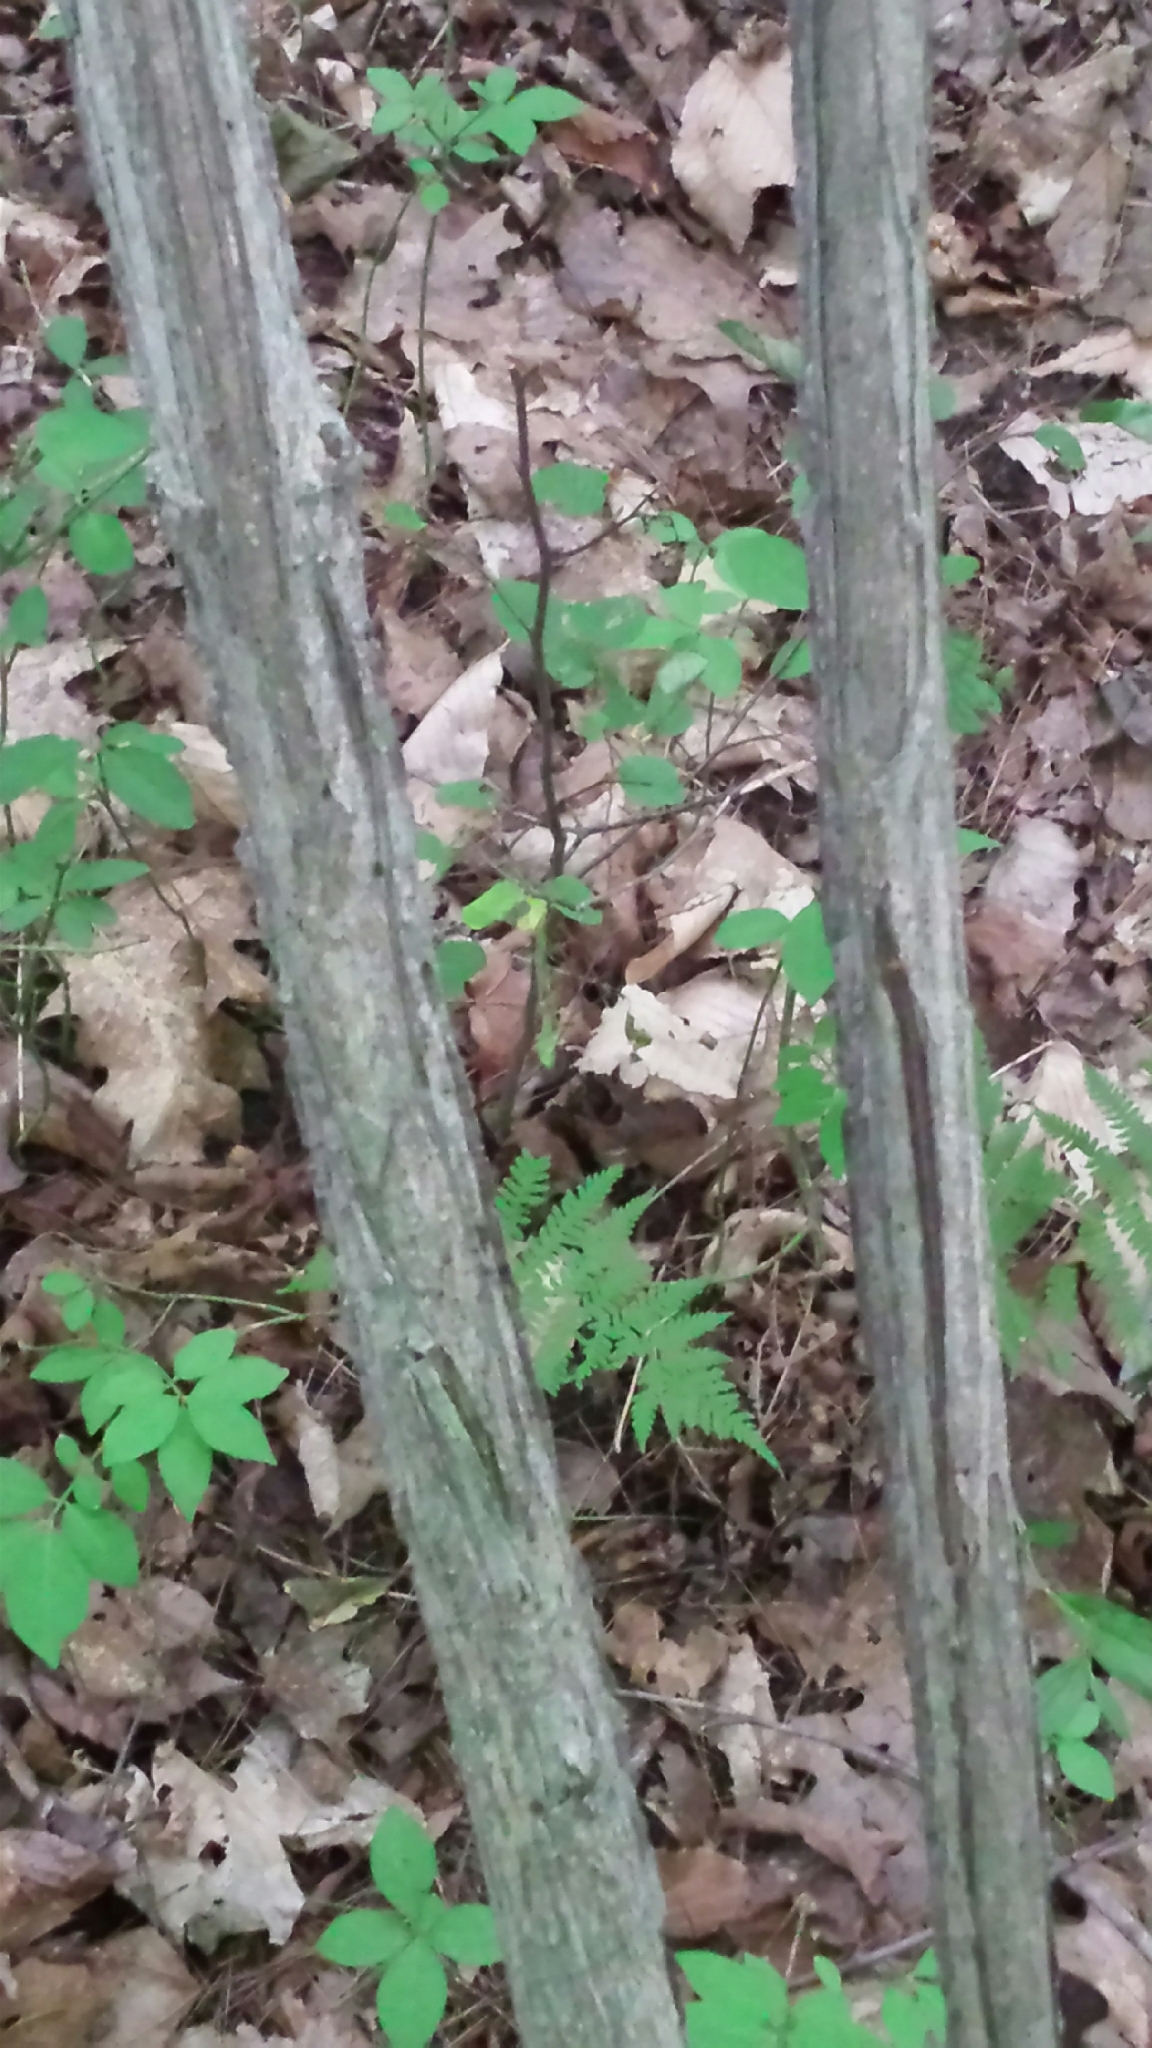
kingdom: Plantae
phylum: Tracheophyta
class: Magnoliopsida
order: Celastrales
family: Celastraceae
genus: Euonymus
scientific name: Euonymus alatus
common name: Winged euonymus
